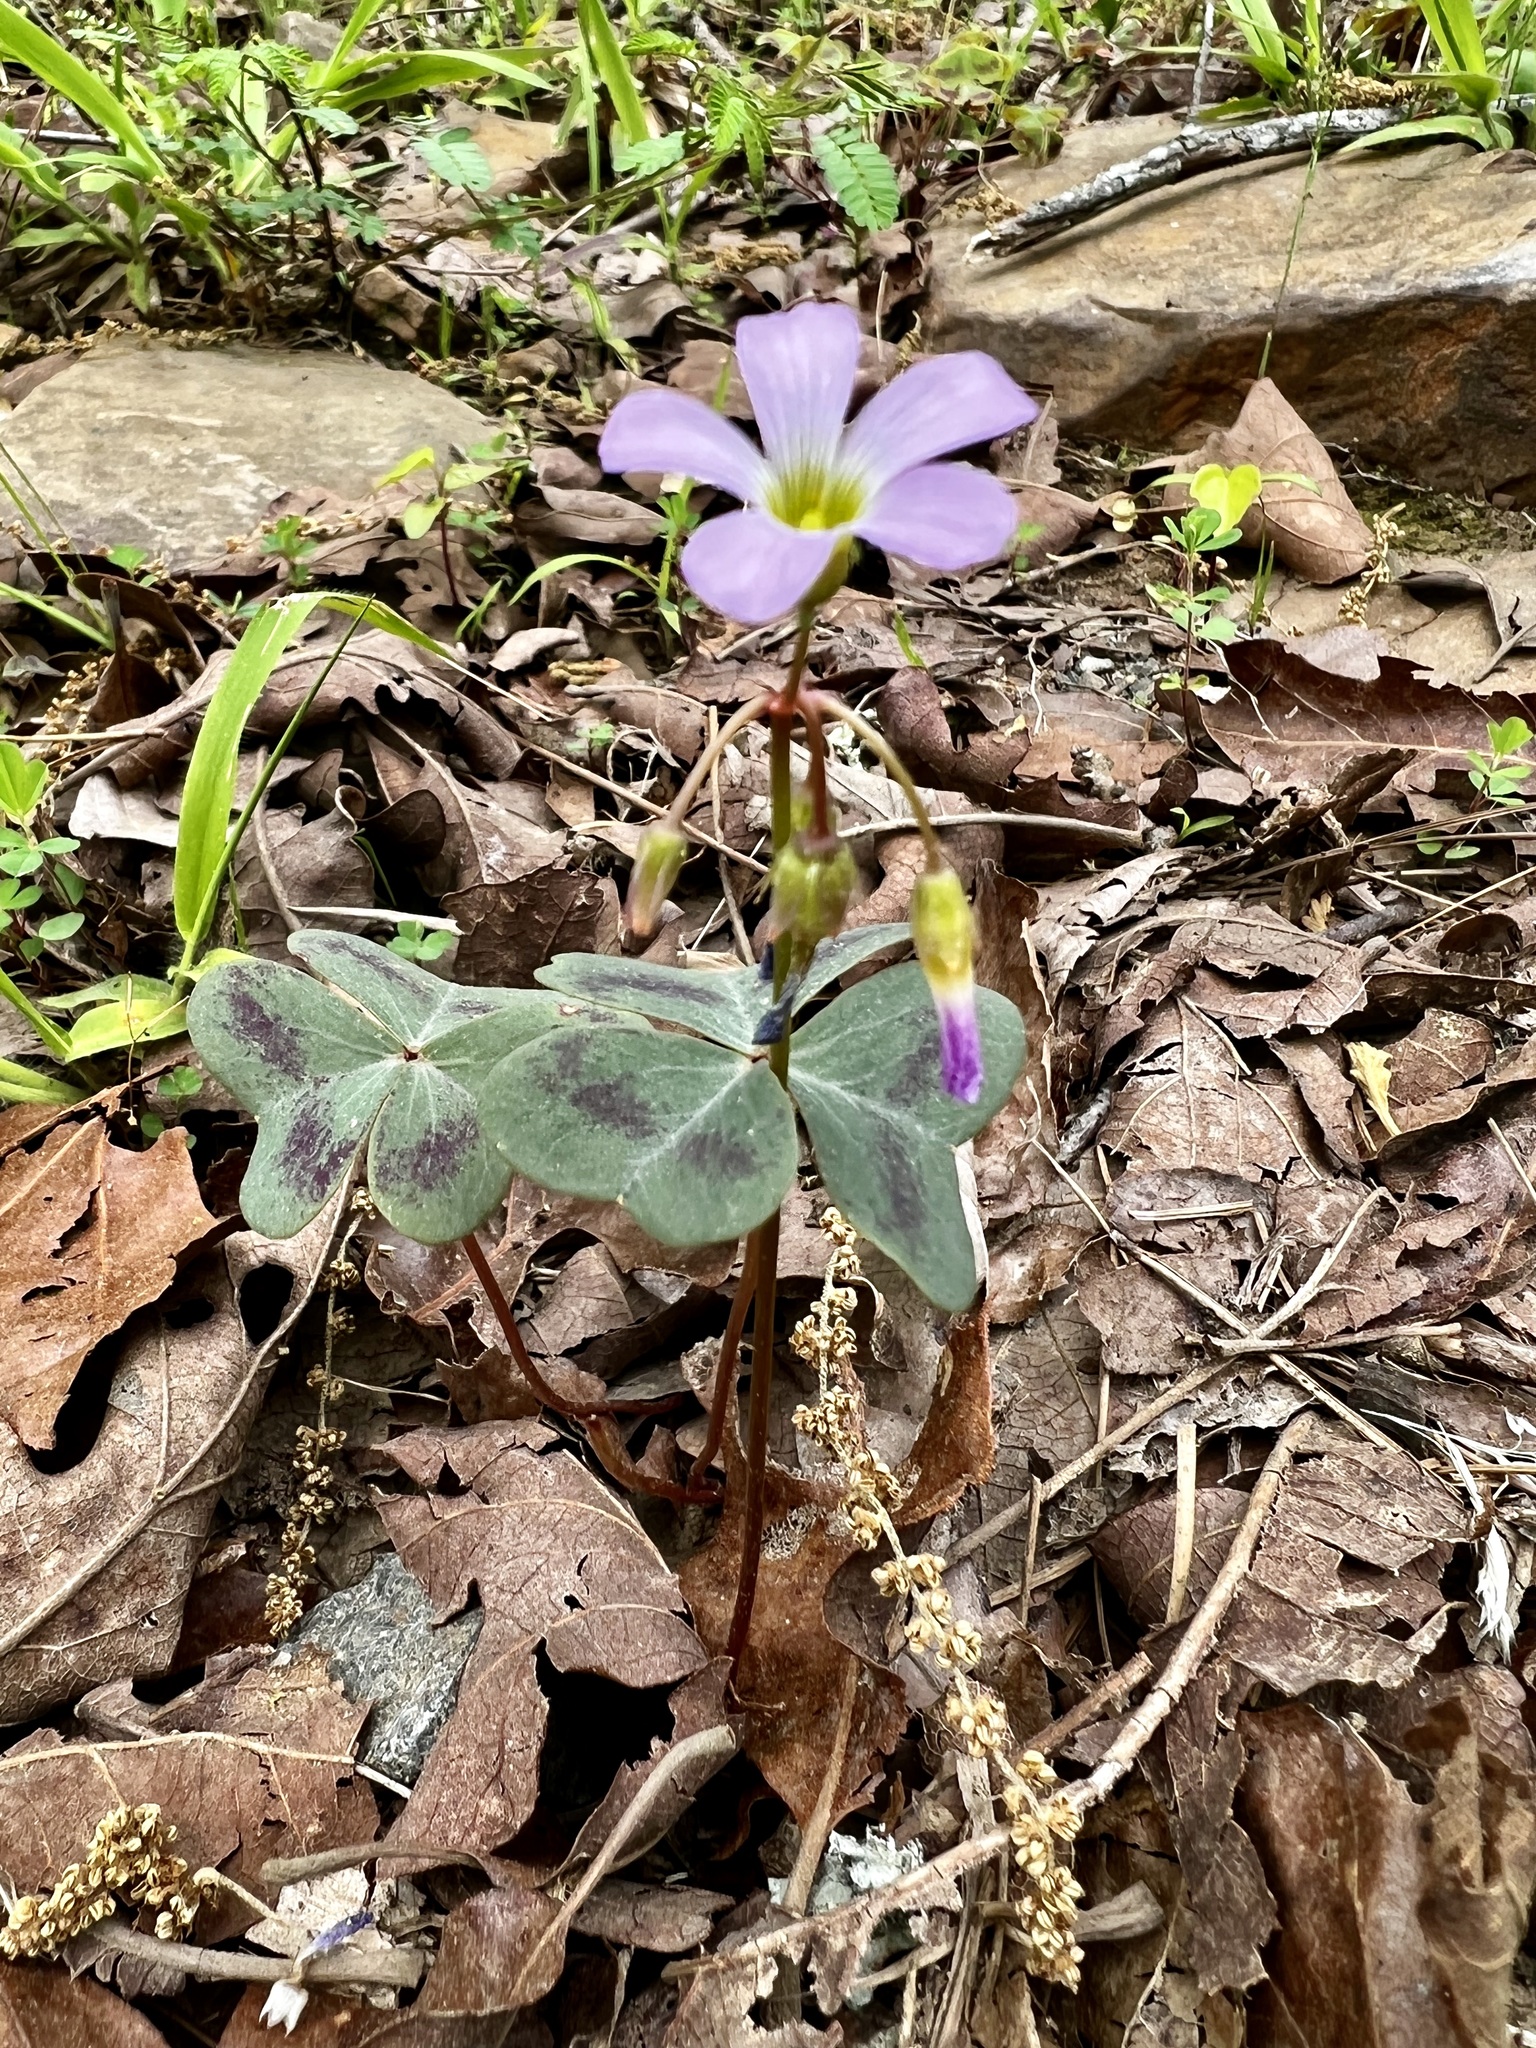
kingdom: Plantae
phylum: Tracheophyta
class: Magnoliopsida
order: Oxalidales
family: Oxalidaceae
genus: Oxalis
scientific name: Oxalis violacea
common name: Violet wood-sorrel
